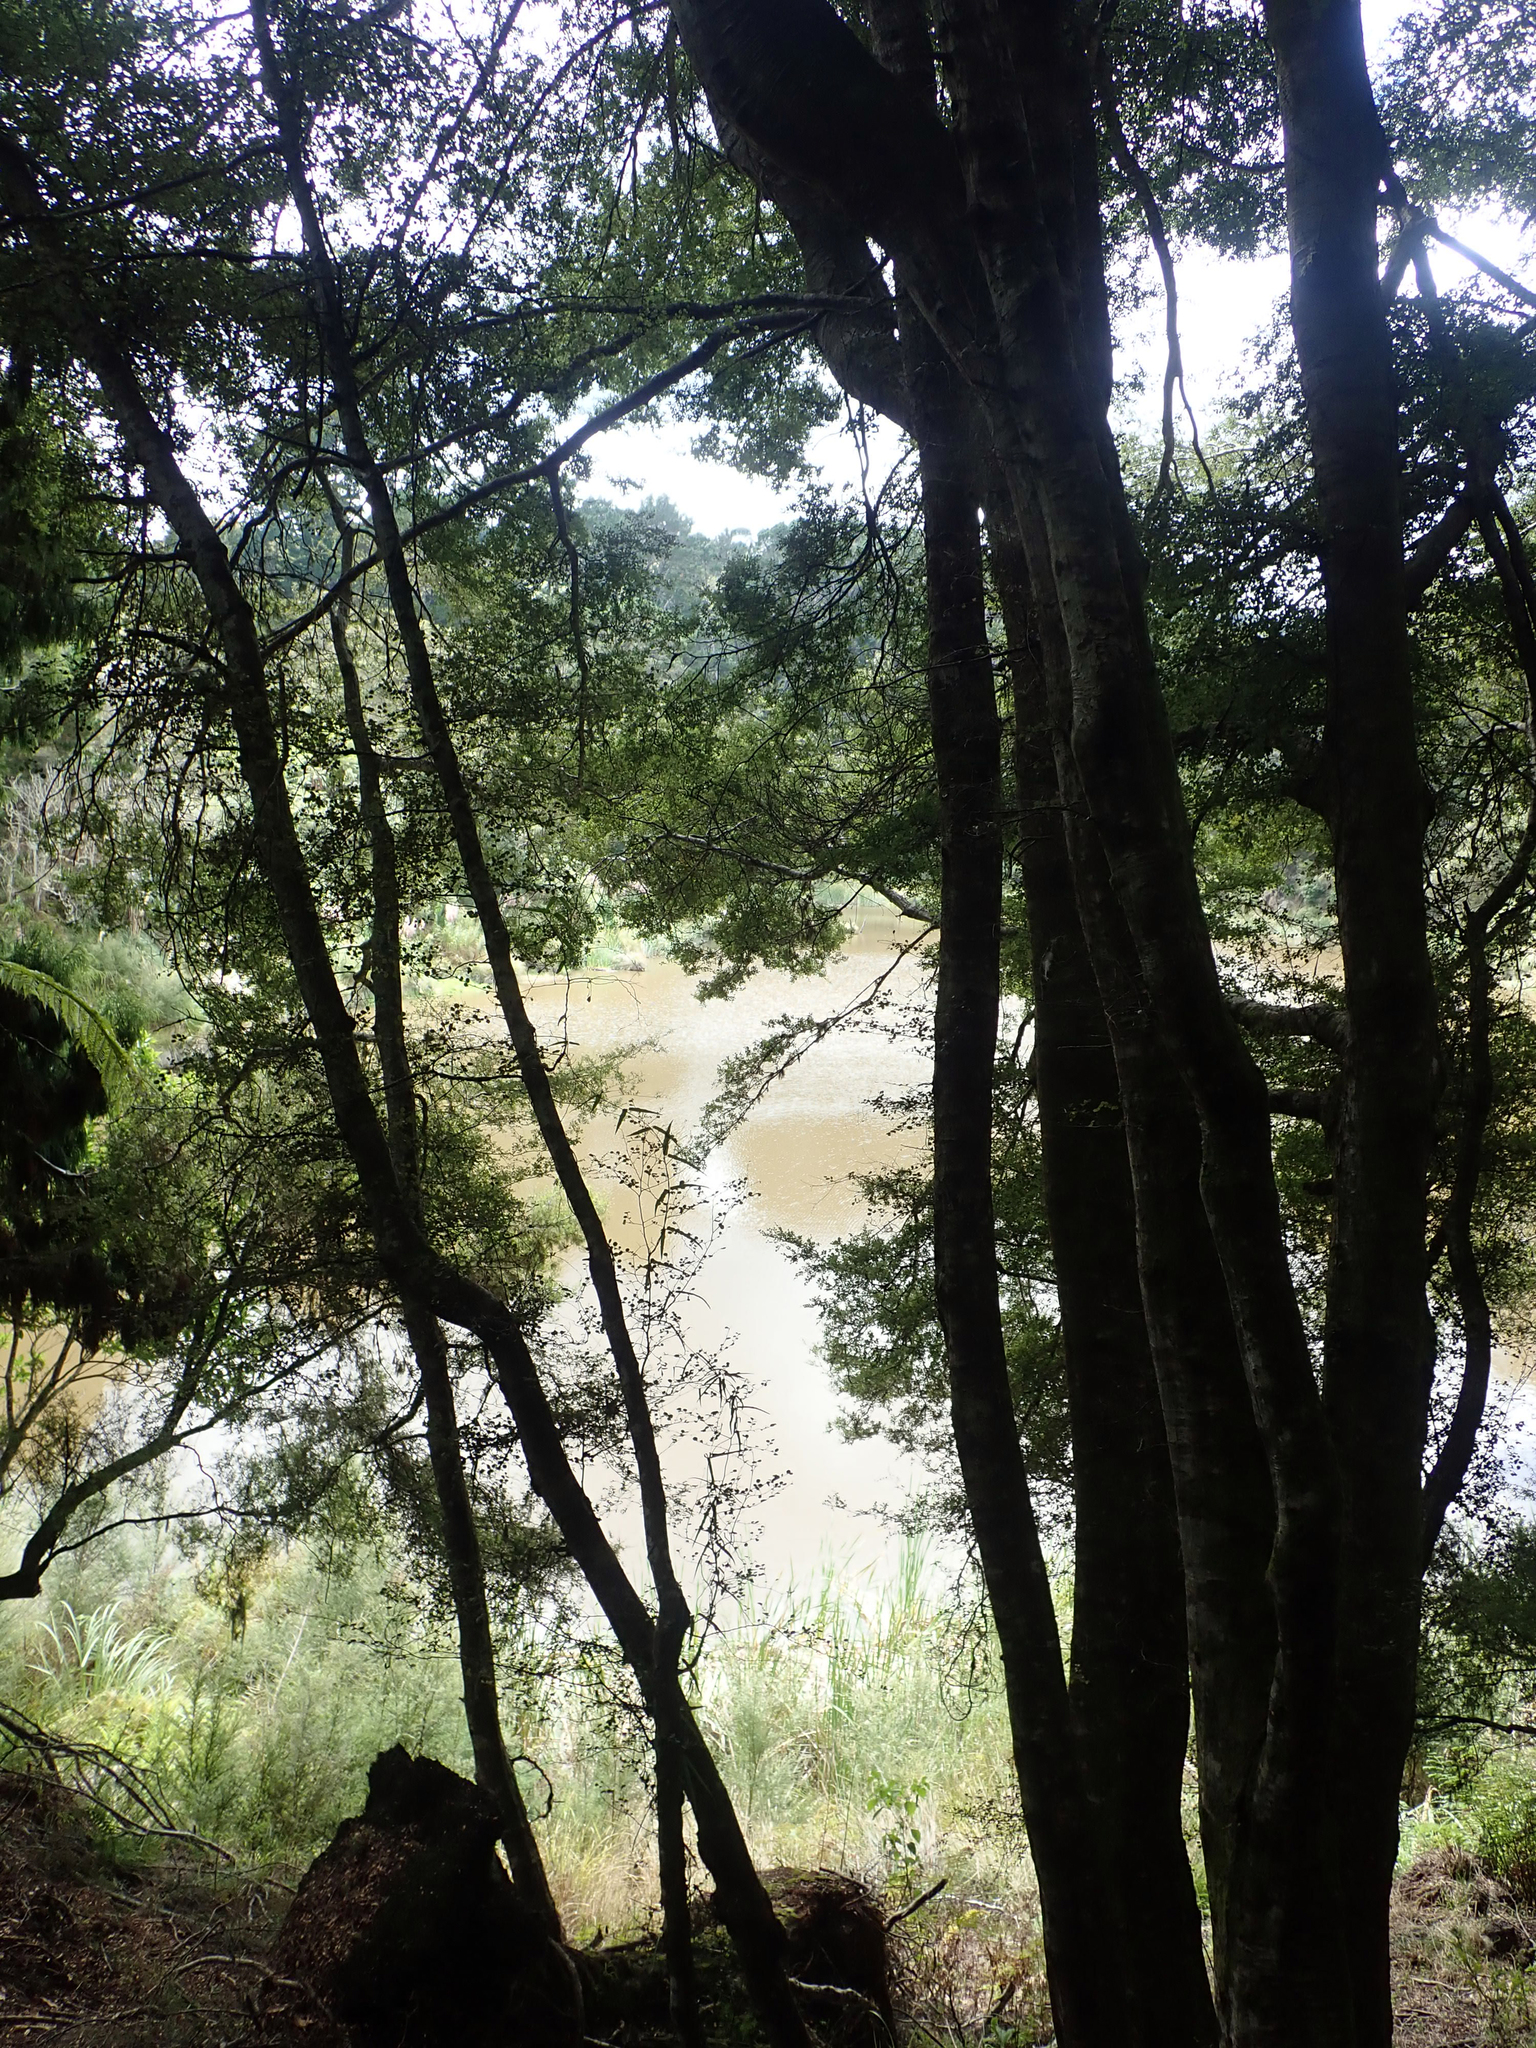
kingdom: Plantae
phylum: Tracheophyta
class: Magnoliopsida
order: Fagales
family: Nothofagaceae
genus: Nothofagus
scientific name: Nothofagus solandri
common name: Black beech
